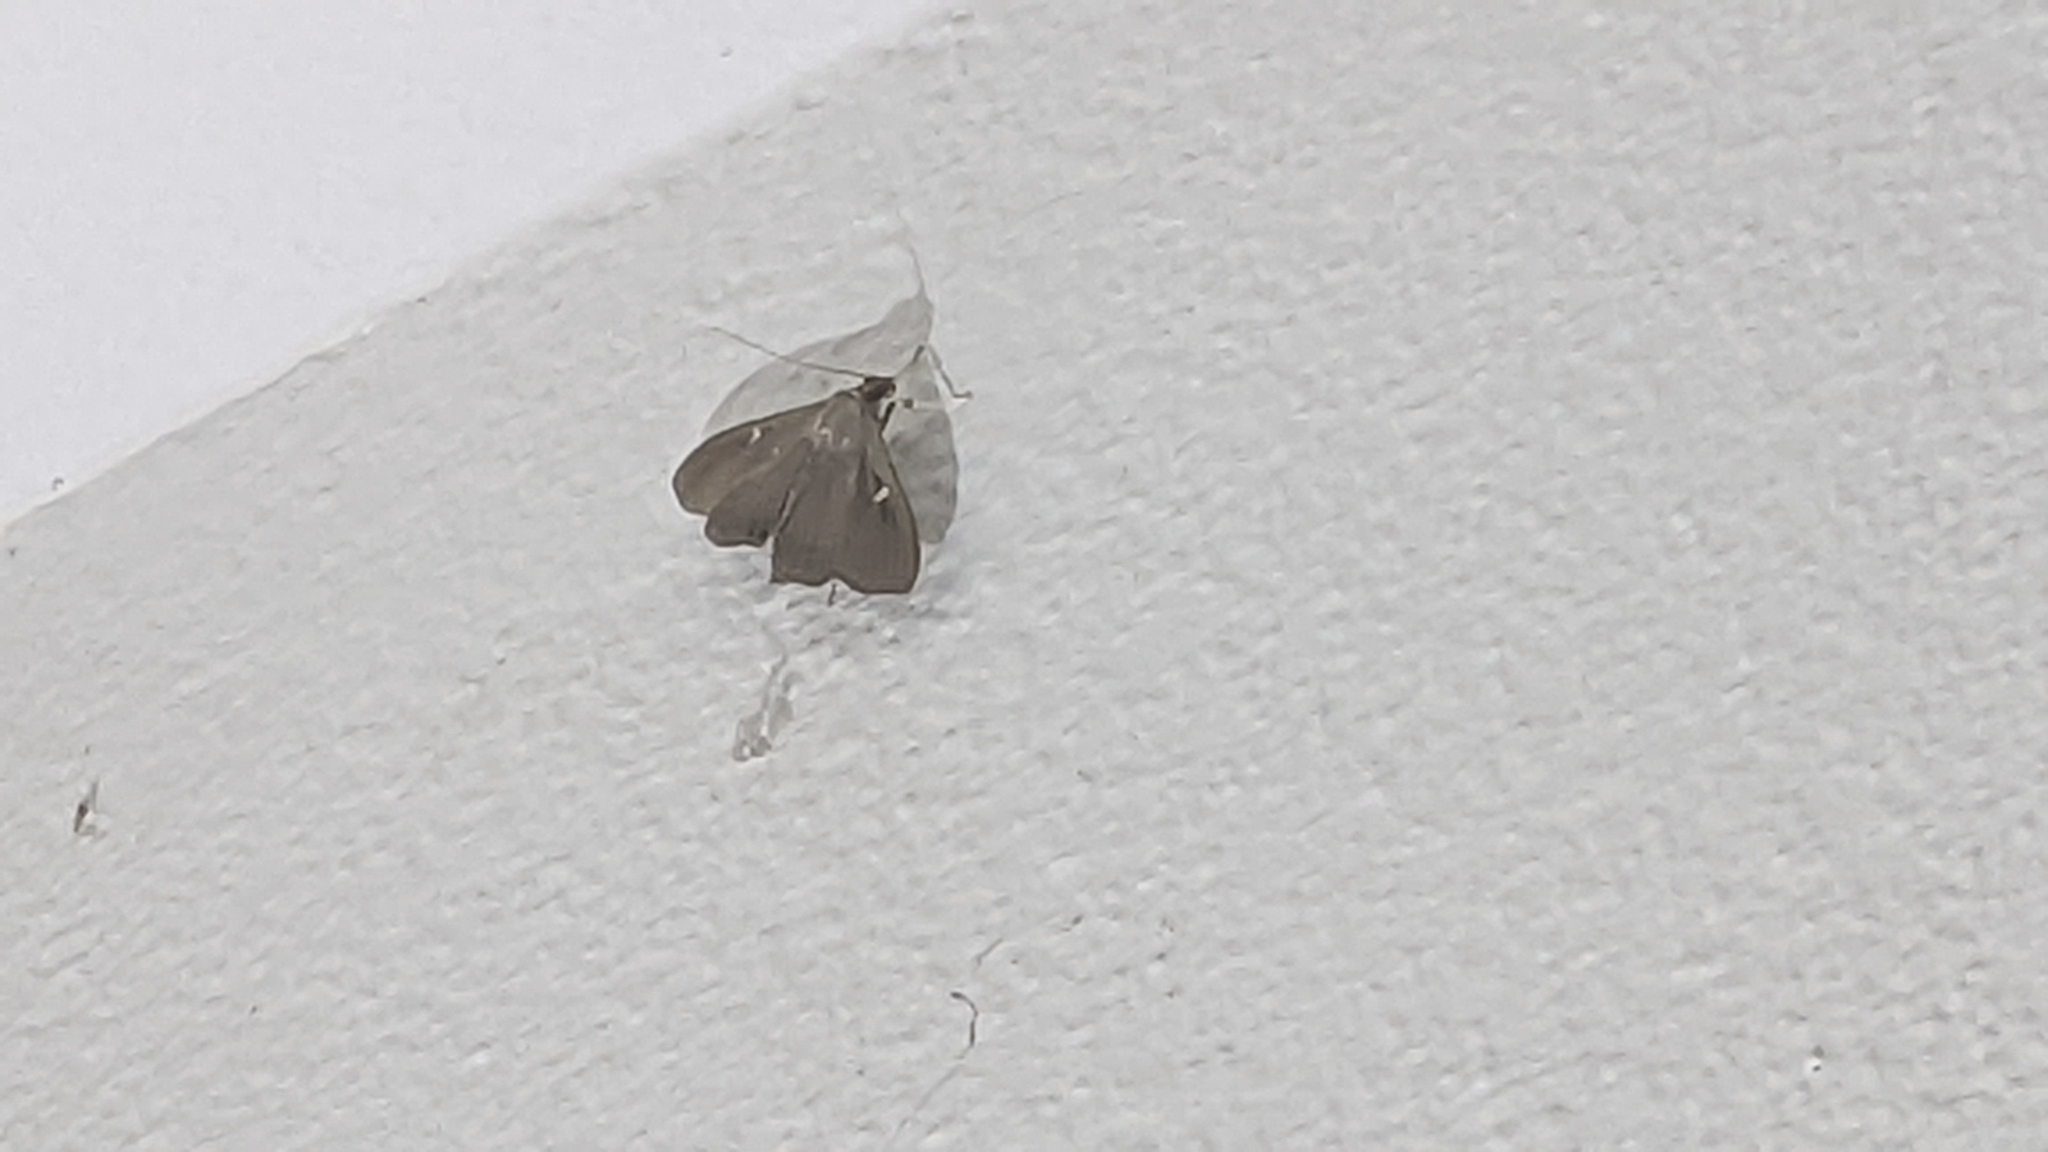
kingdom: Animalia
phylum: Arthropoda
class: Insecta
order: Lepidoptera
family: Crambidae
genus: Cydalima
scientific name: Cydalima perspectalis
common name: Box tree moth
